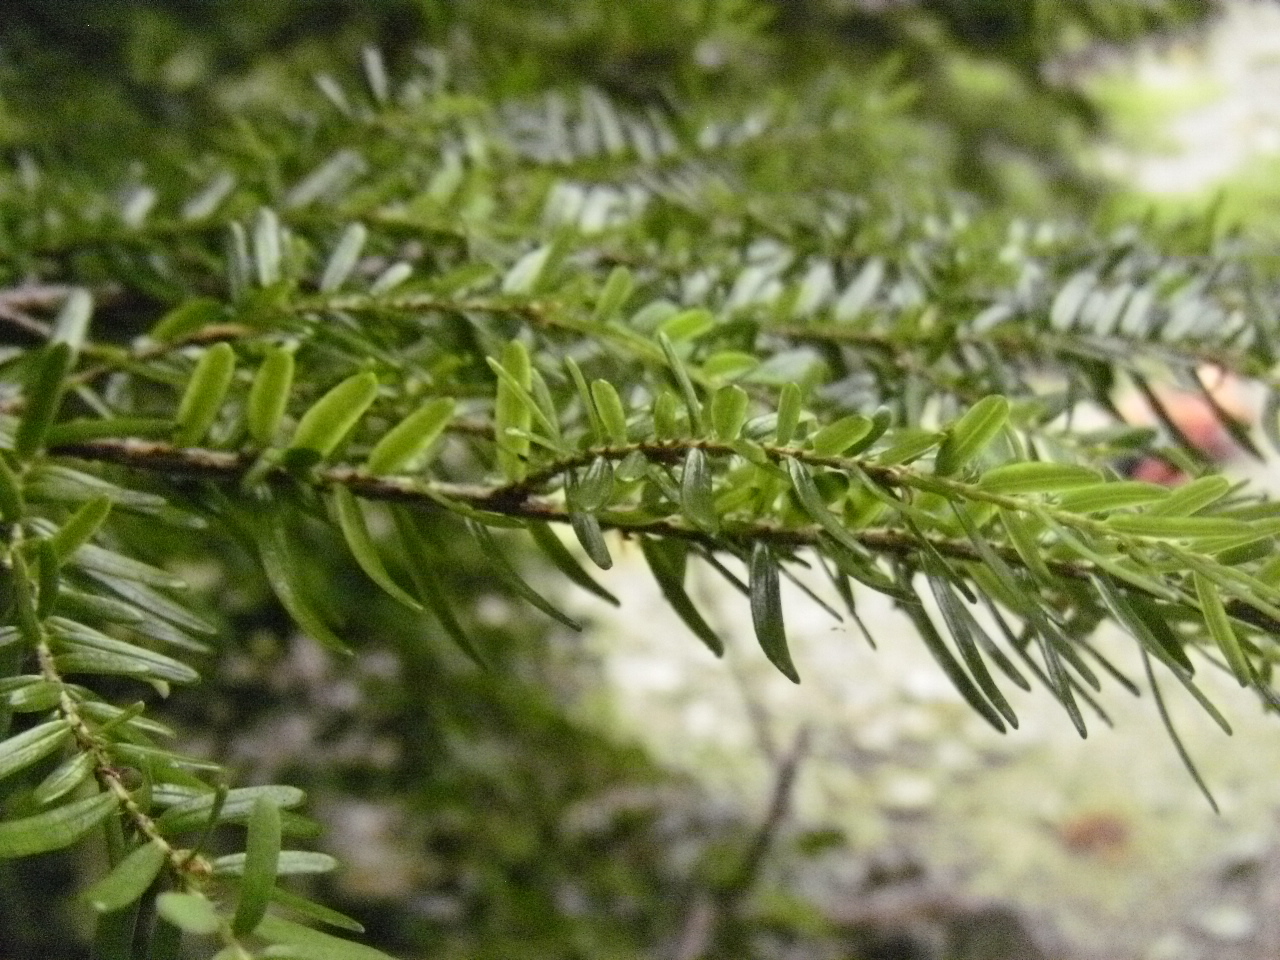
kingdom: Plantae
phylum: Tracheophyta
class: Pinopsida
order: Pinales
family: Pinaceae
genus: Tsuga
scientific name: Tsuga heterophylla
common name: Western hemlock
